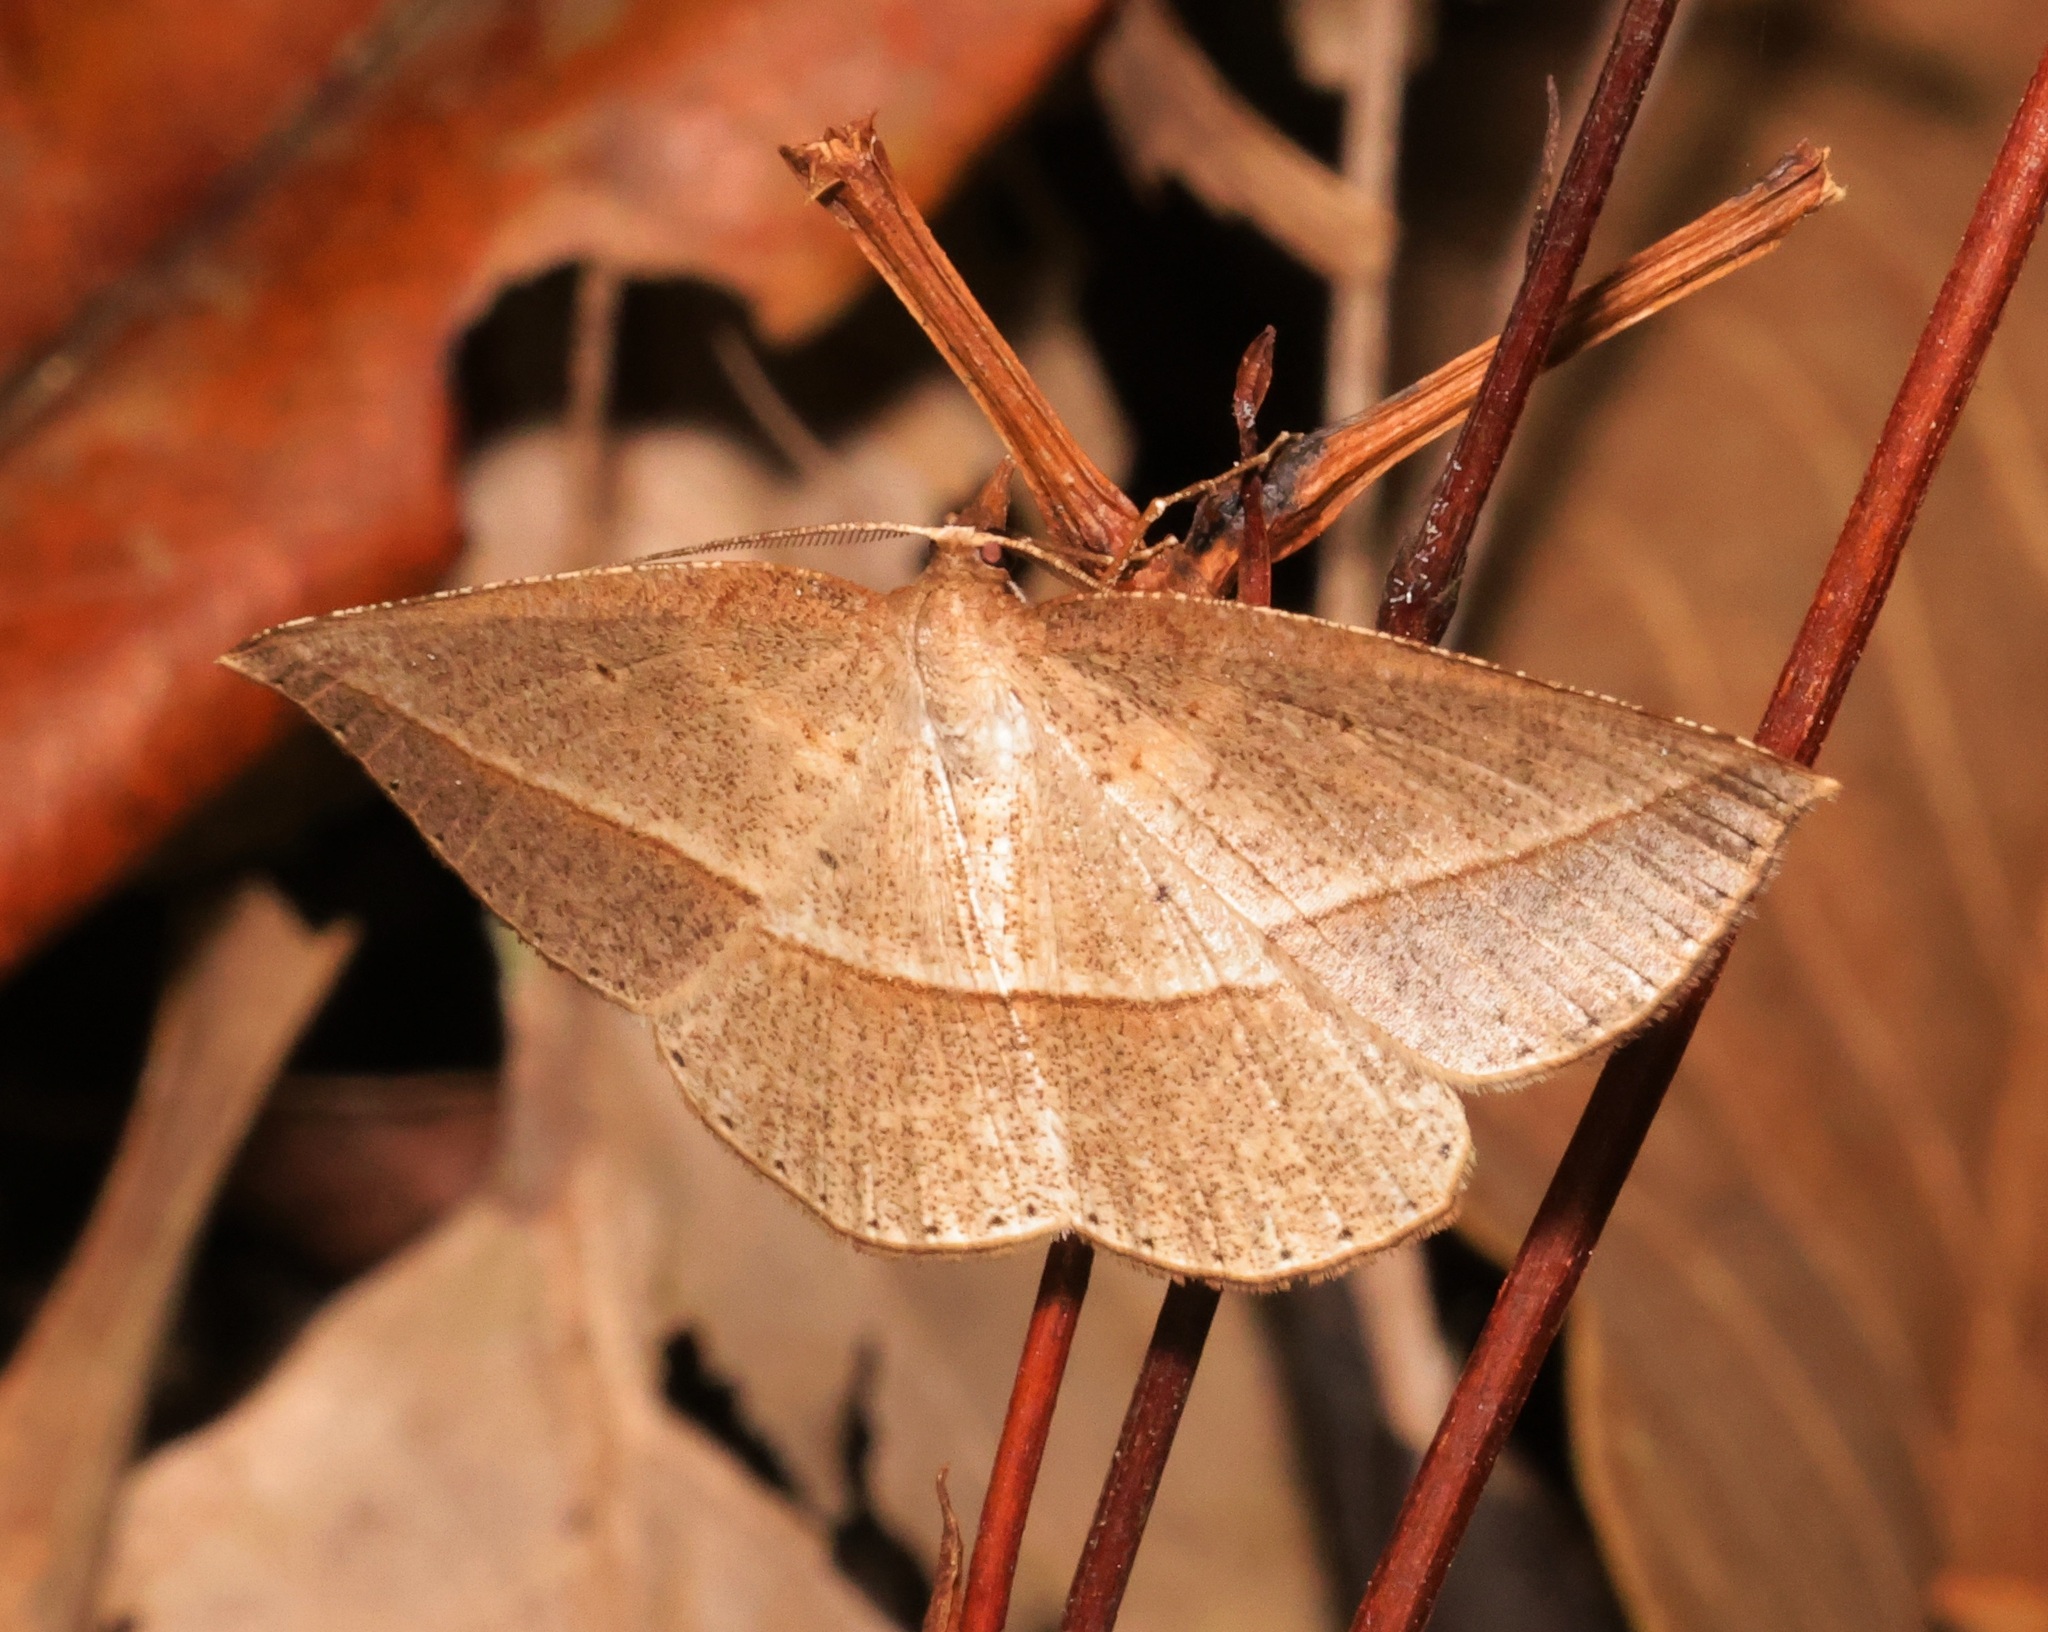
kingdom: Animalia
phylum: Arthropoda
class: Insecta
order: Lepidoptera
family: Geometridae
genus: Heteralex
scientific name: Heteralex unilinea
